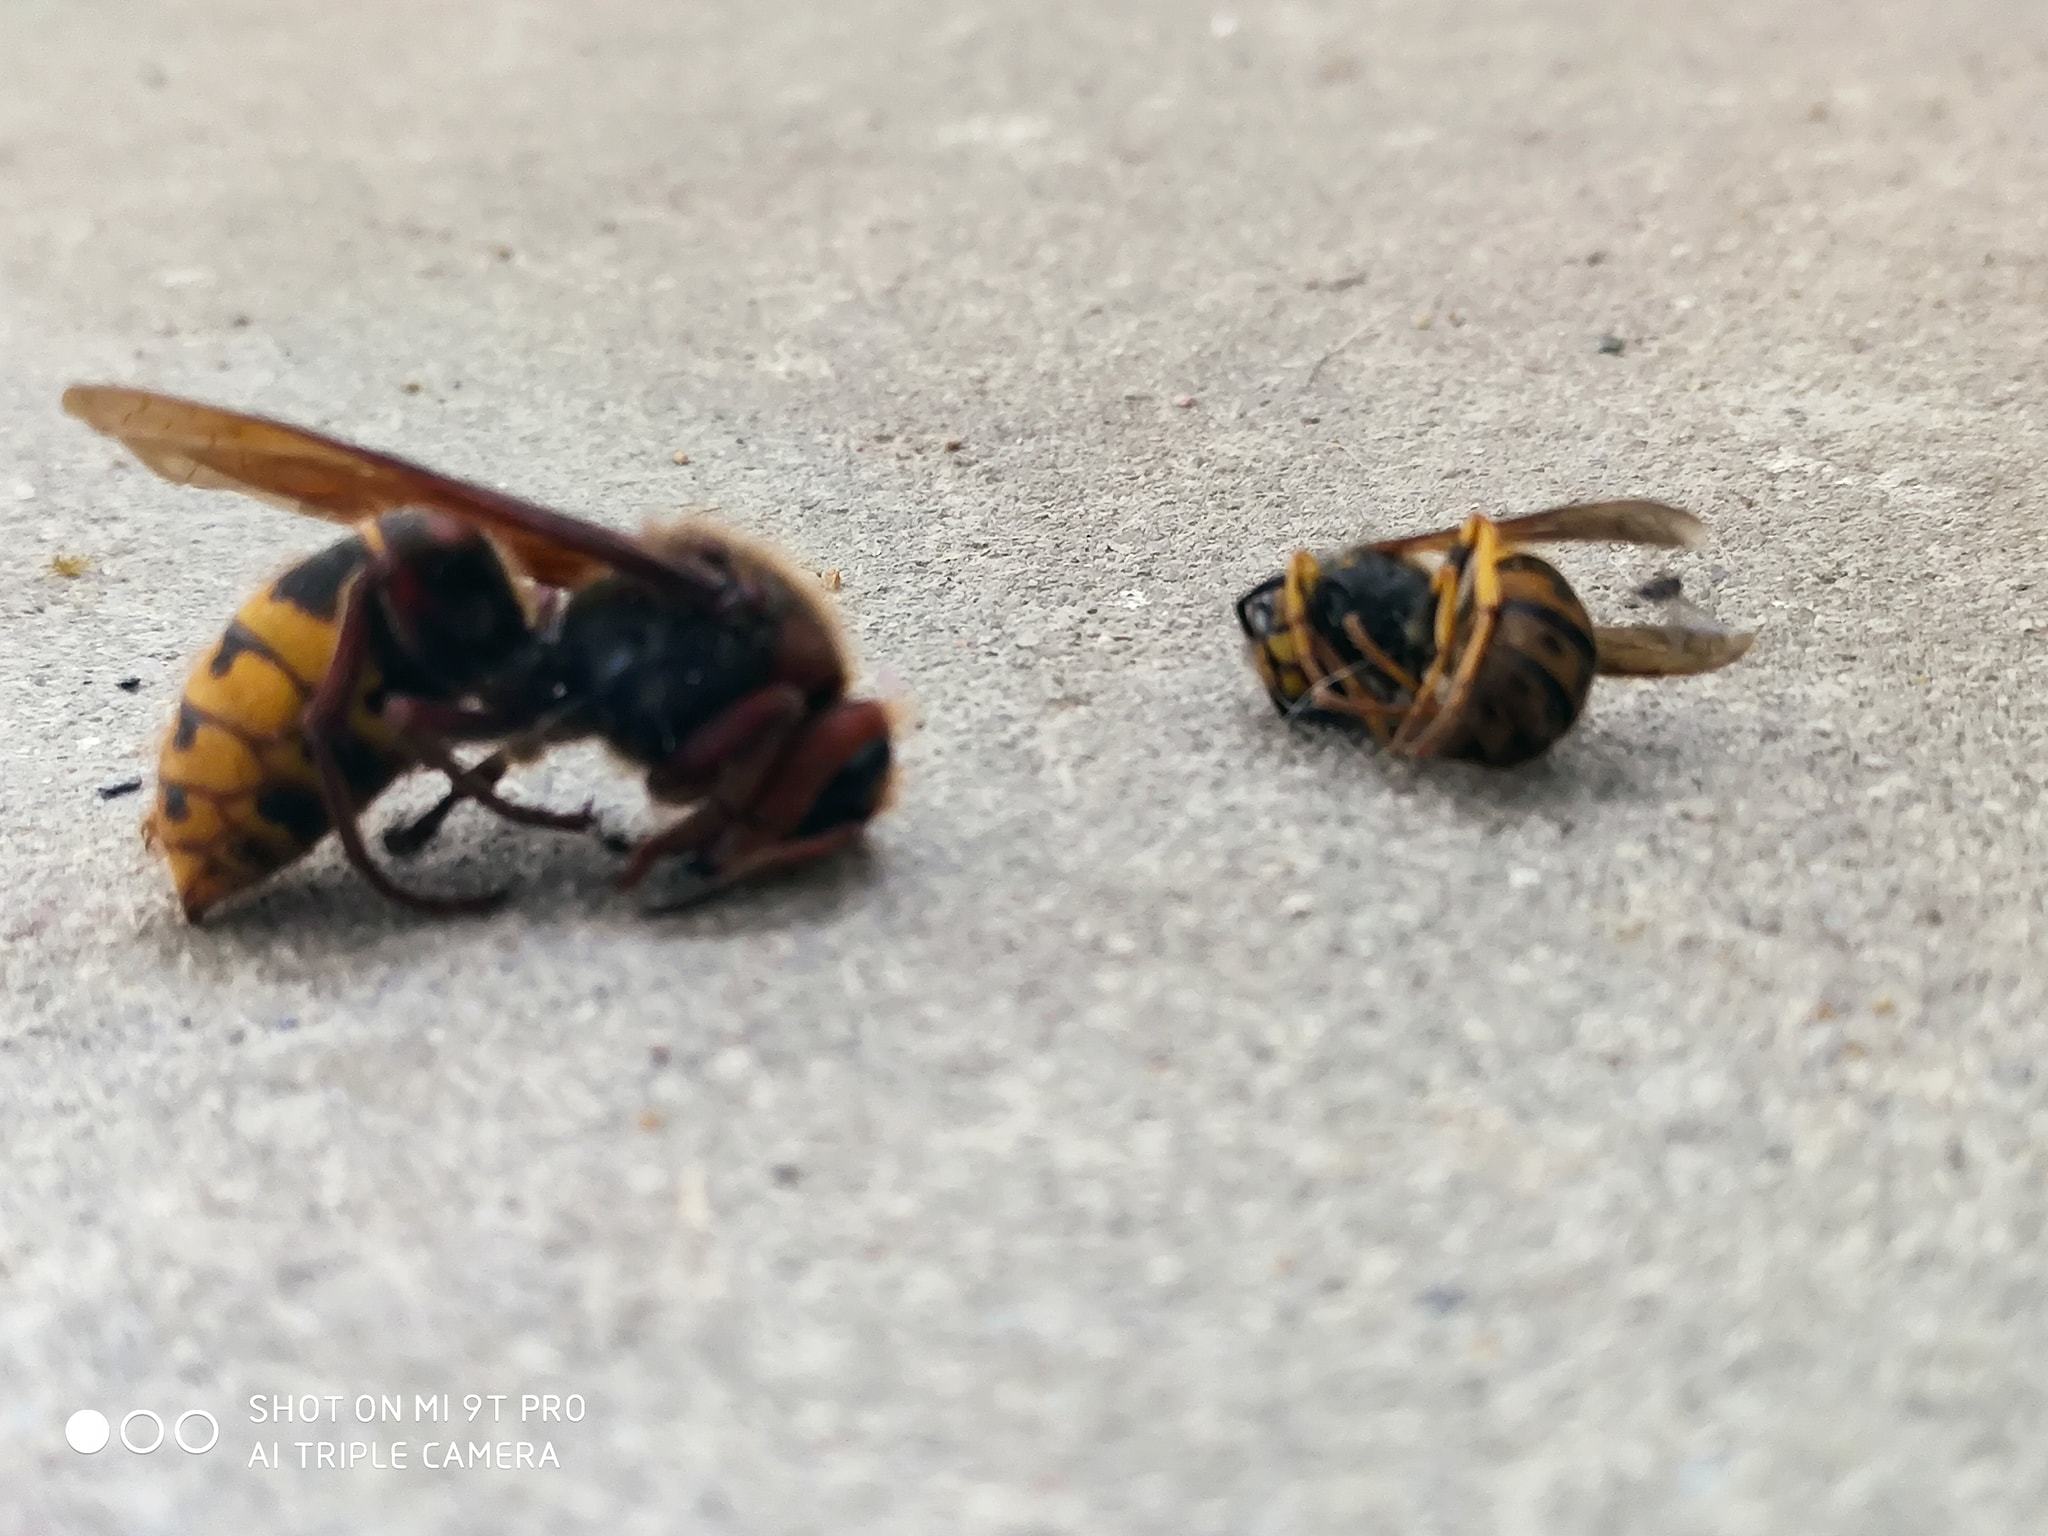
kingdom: Animalia
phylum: Arthropoda
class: Insecta
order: Hymenoptera
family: Vespidae
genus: Vespa
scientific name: Vespa crabro
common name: Hornet
